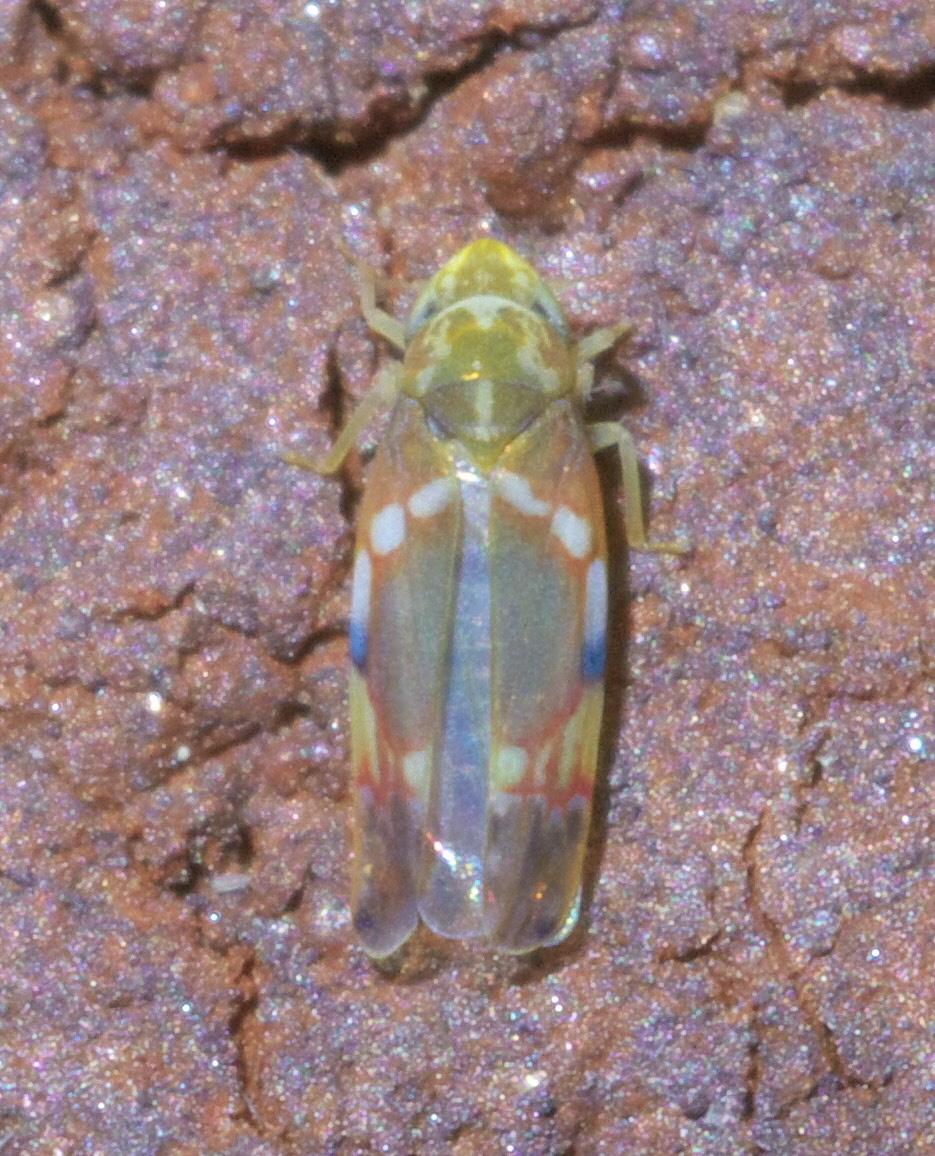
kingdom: Animalia
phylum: Arthropoda
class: Insecta
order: Hemiptera
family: Cicadellidae
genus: Erythroneura
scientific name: Erythroneura vitis
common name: Grapevine leafhopper
